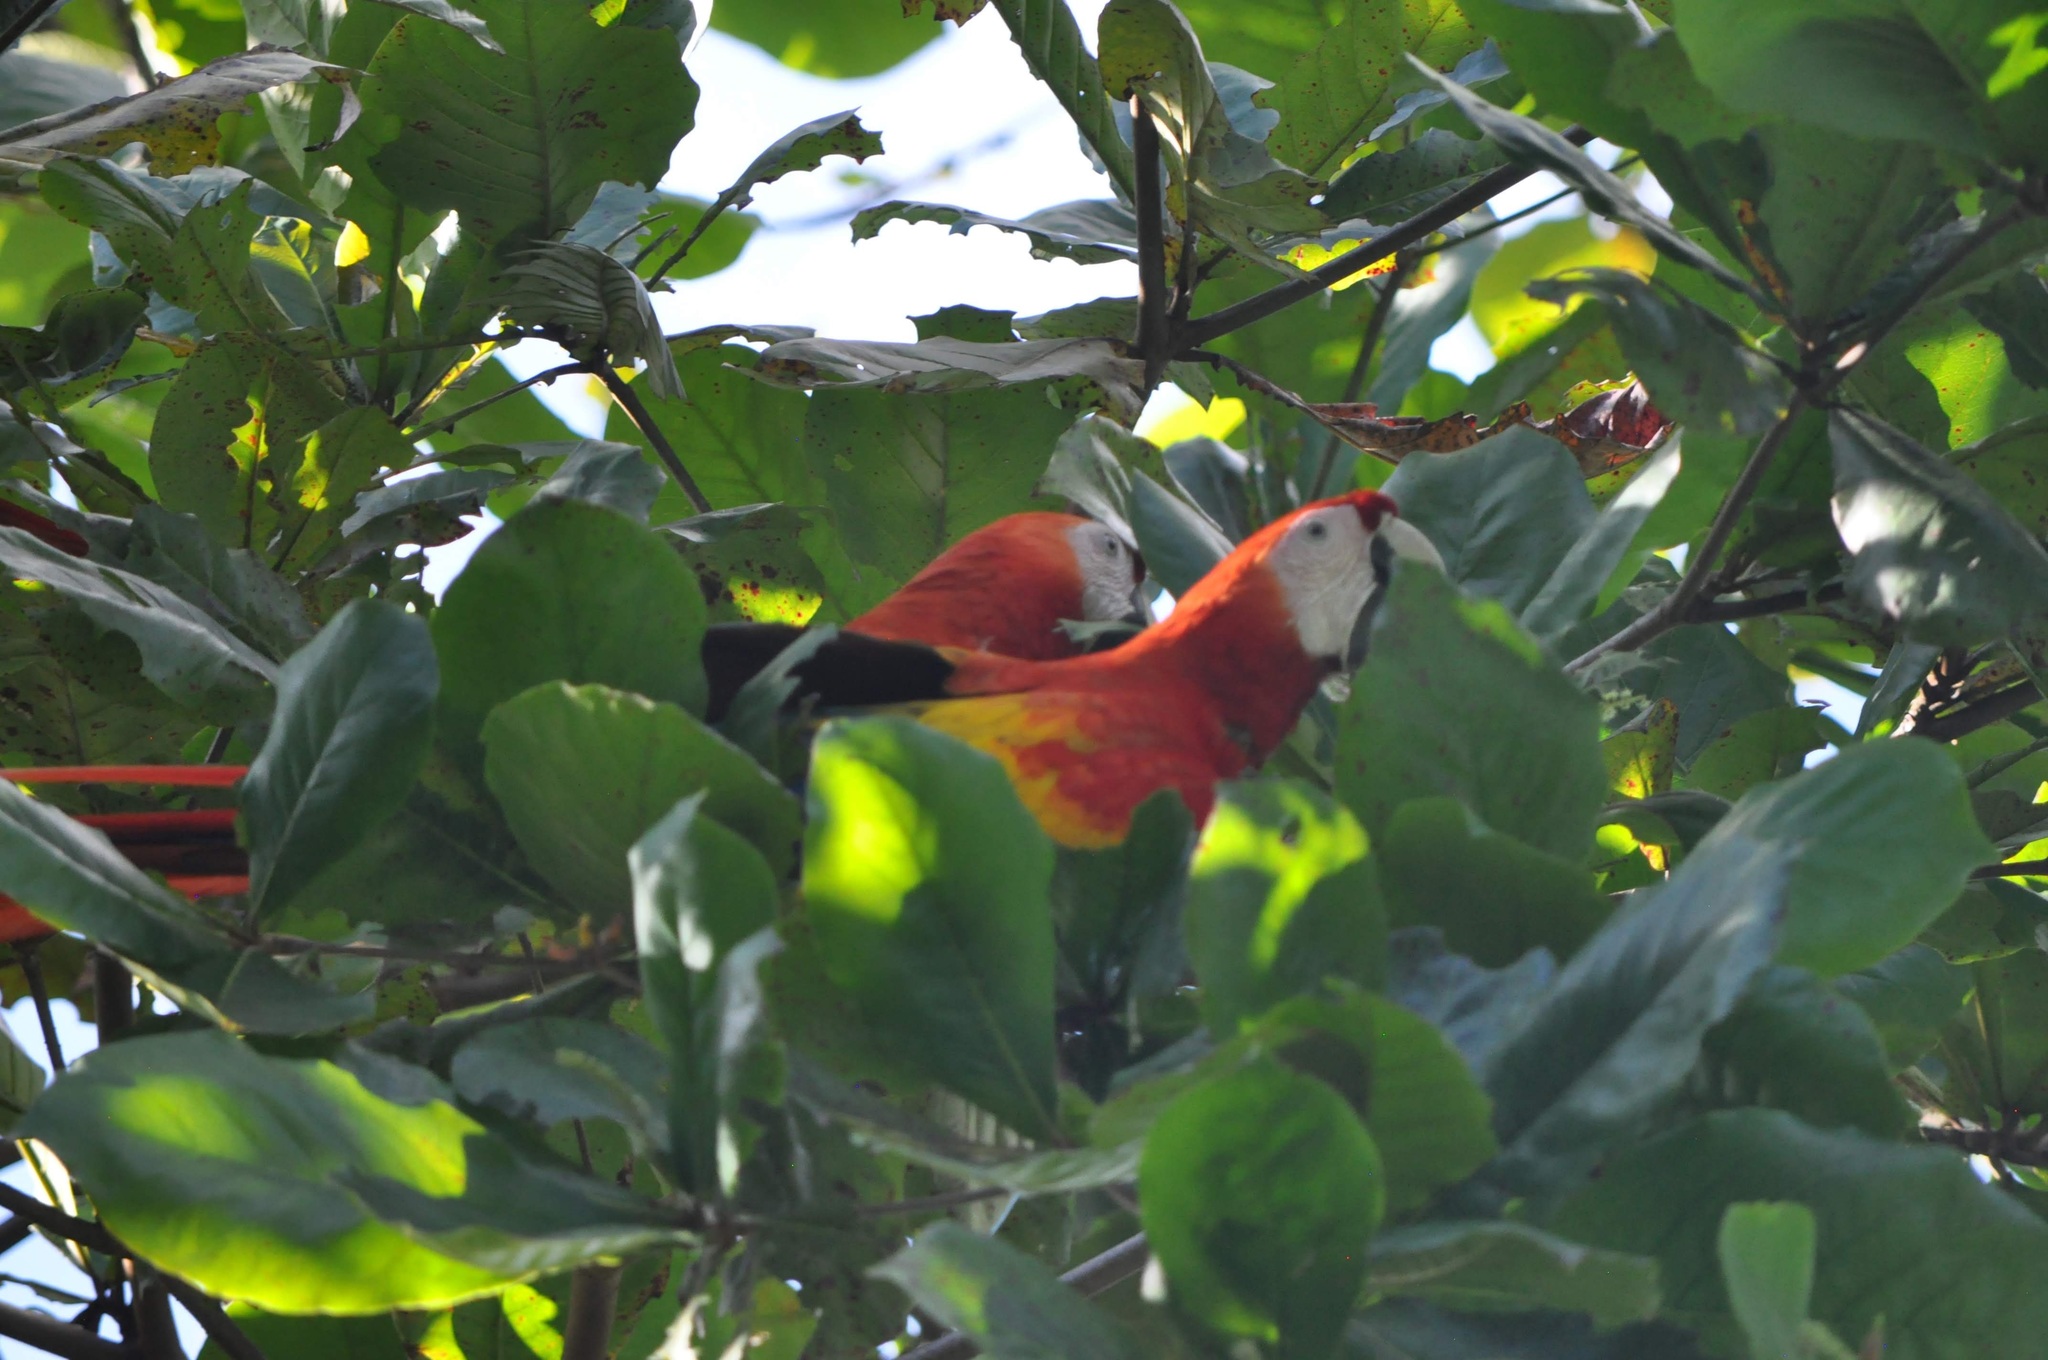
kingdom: Animalia
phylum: Chordata
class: Aves
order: Psittaciformes
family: Psittacidae
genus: Ara
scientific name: Ara macao
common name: Scarlet macaw
